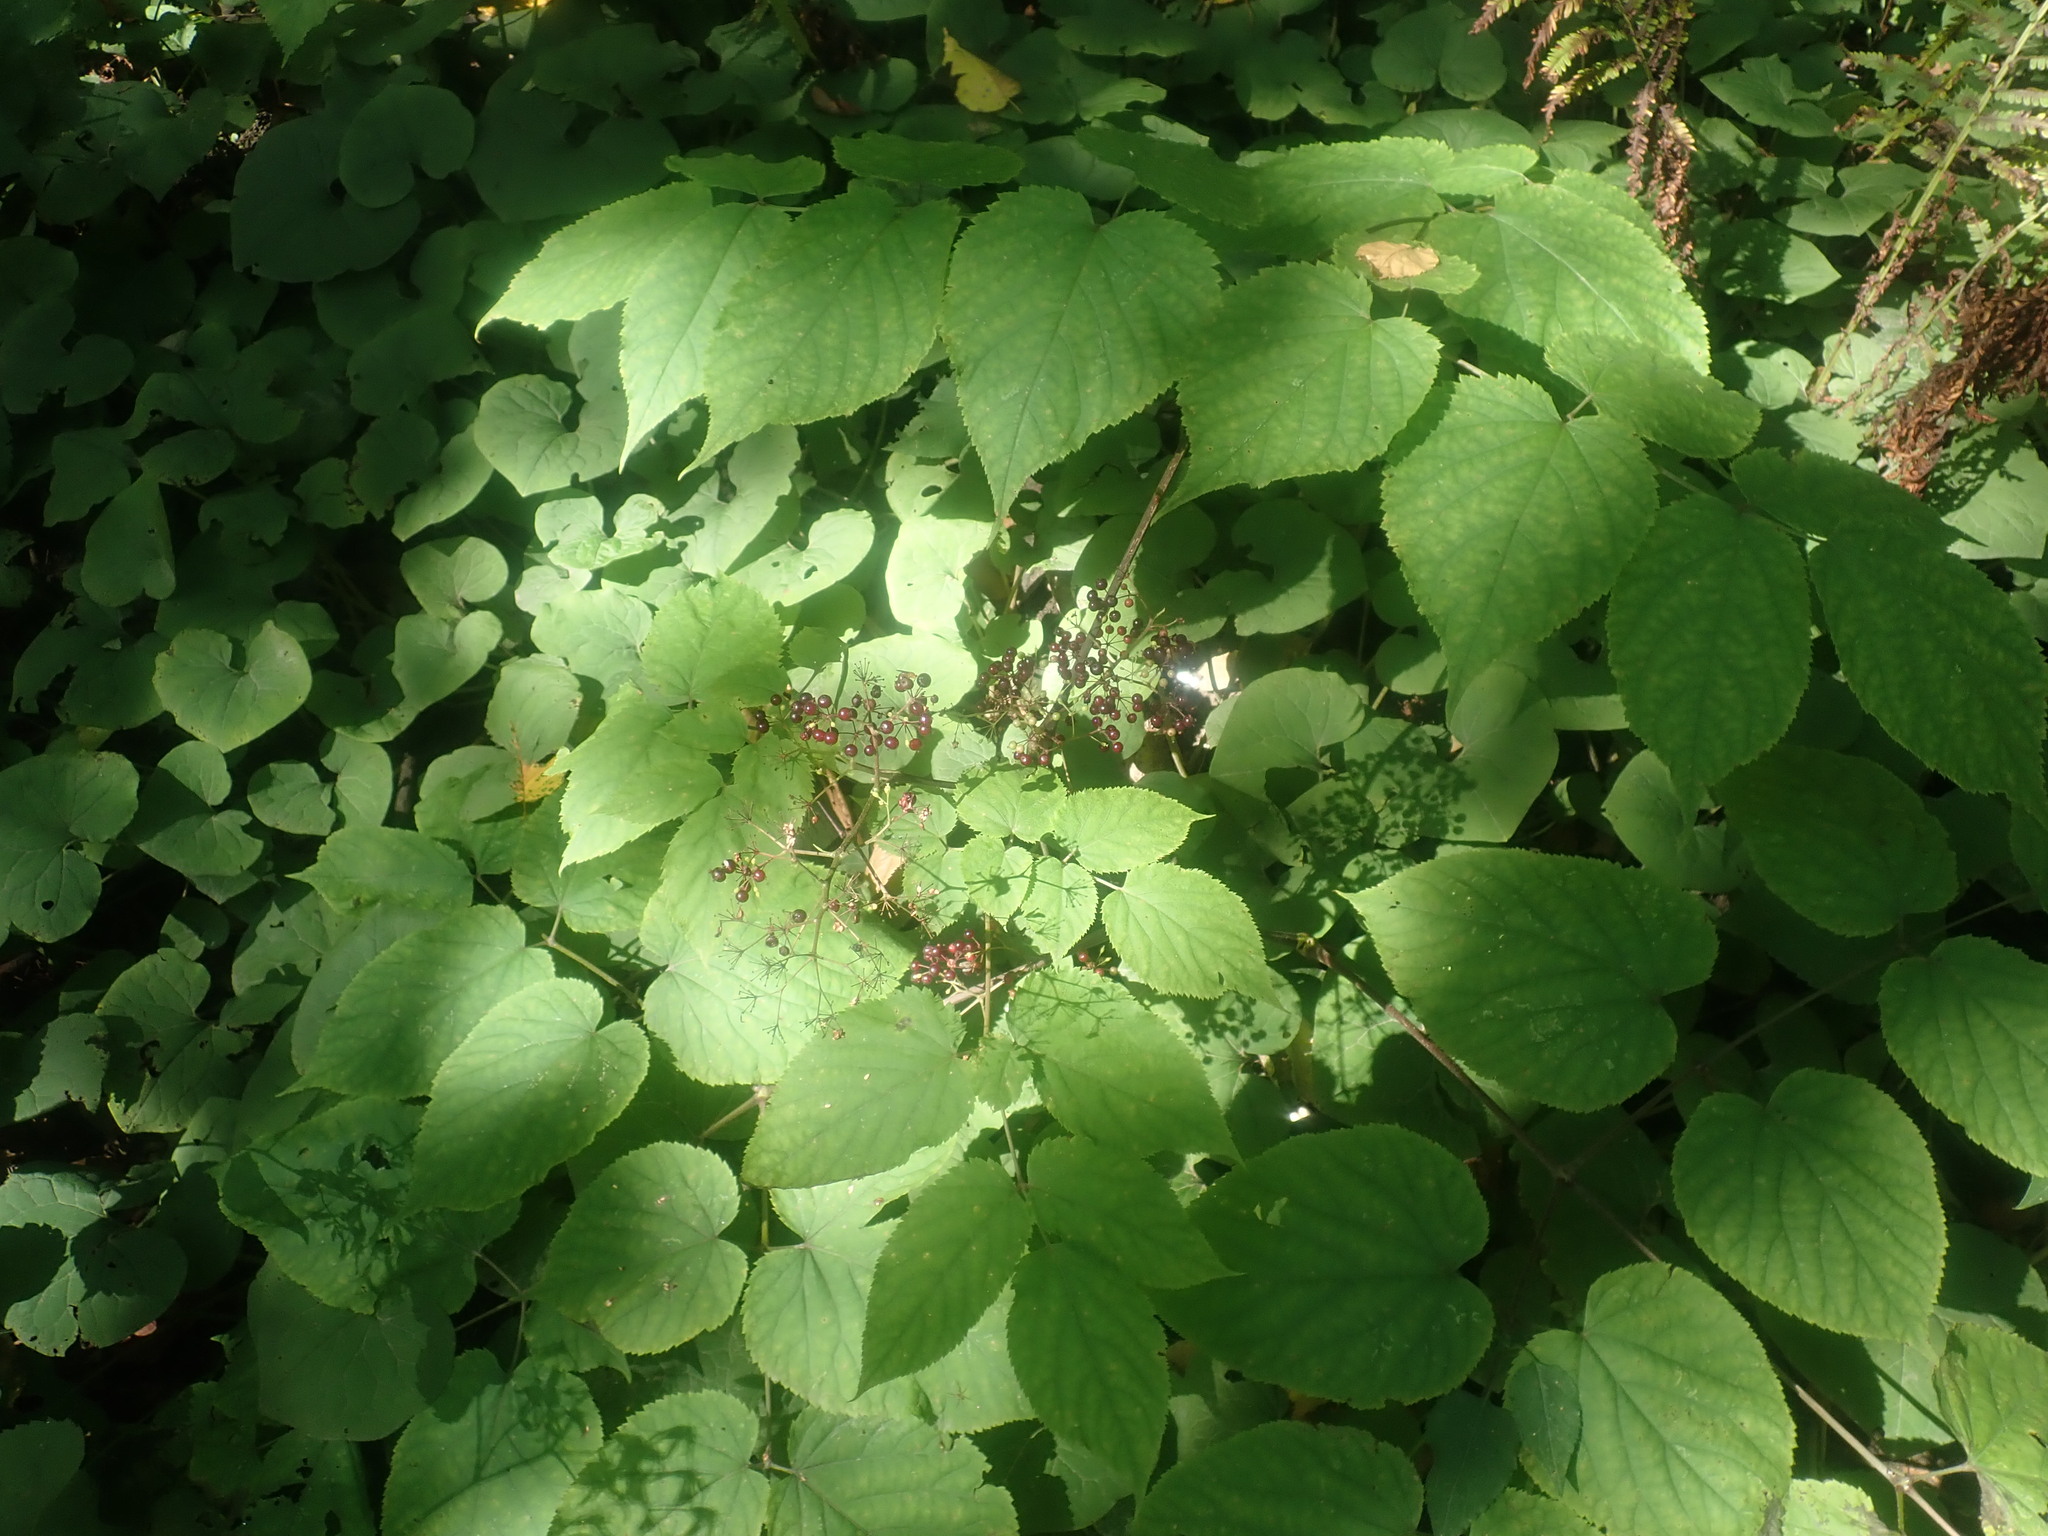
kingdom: Plantae
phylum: Tracheophyta
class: Magnoliopsida
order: Apiales
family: Araliaceae
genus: Aralia
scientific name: Aralia racemosa
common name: American-spikenard
